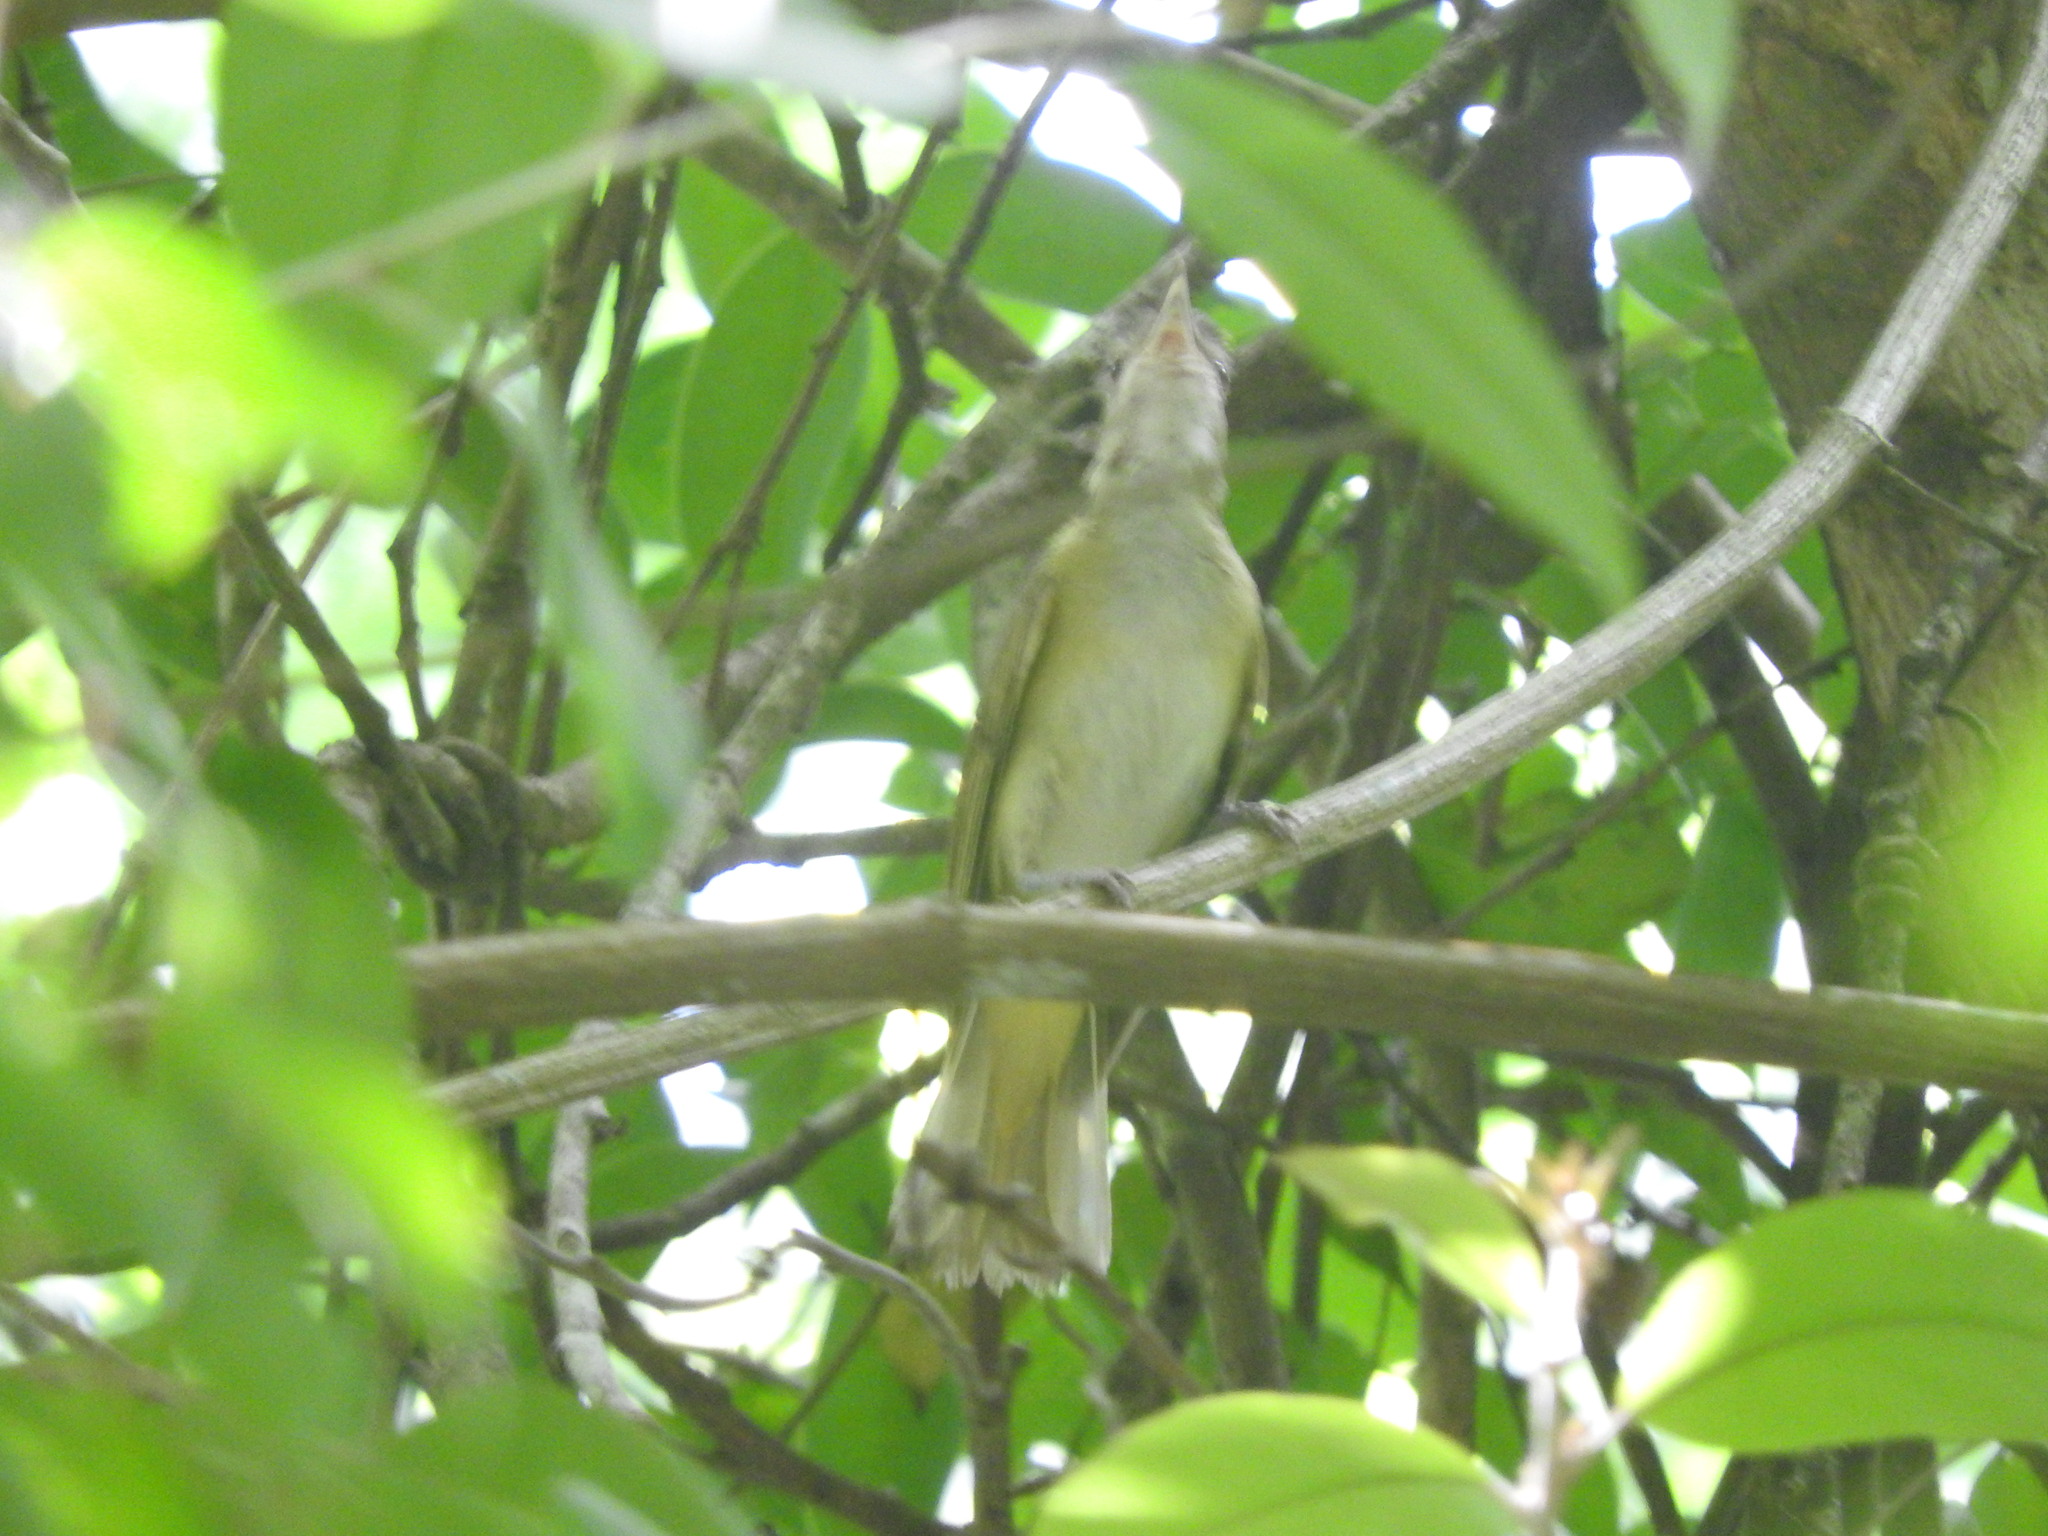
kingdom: Animalia
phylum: Chordata
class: Aves
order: Passeriformes
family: Vireonidae
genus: Vireo
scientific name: Vireo flavoviridis
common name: Yellow-green vireo
